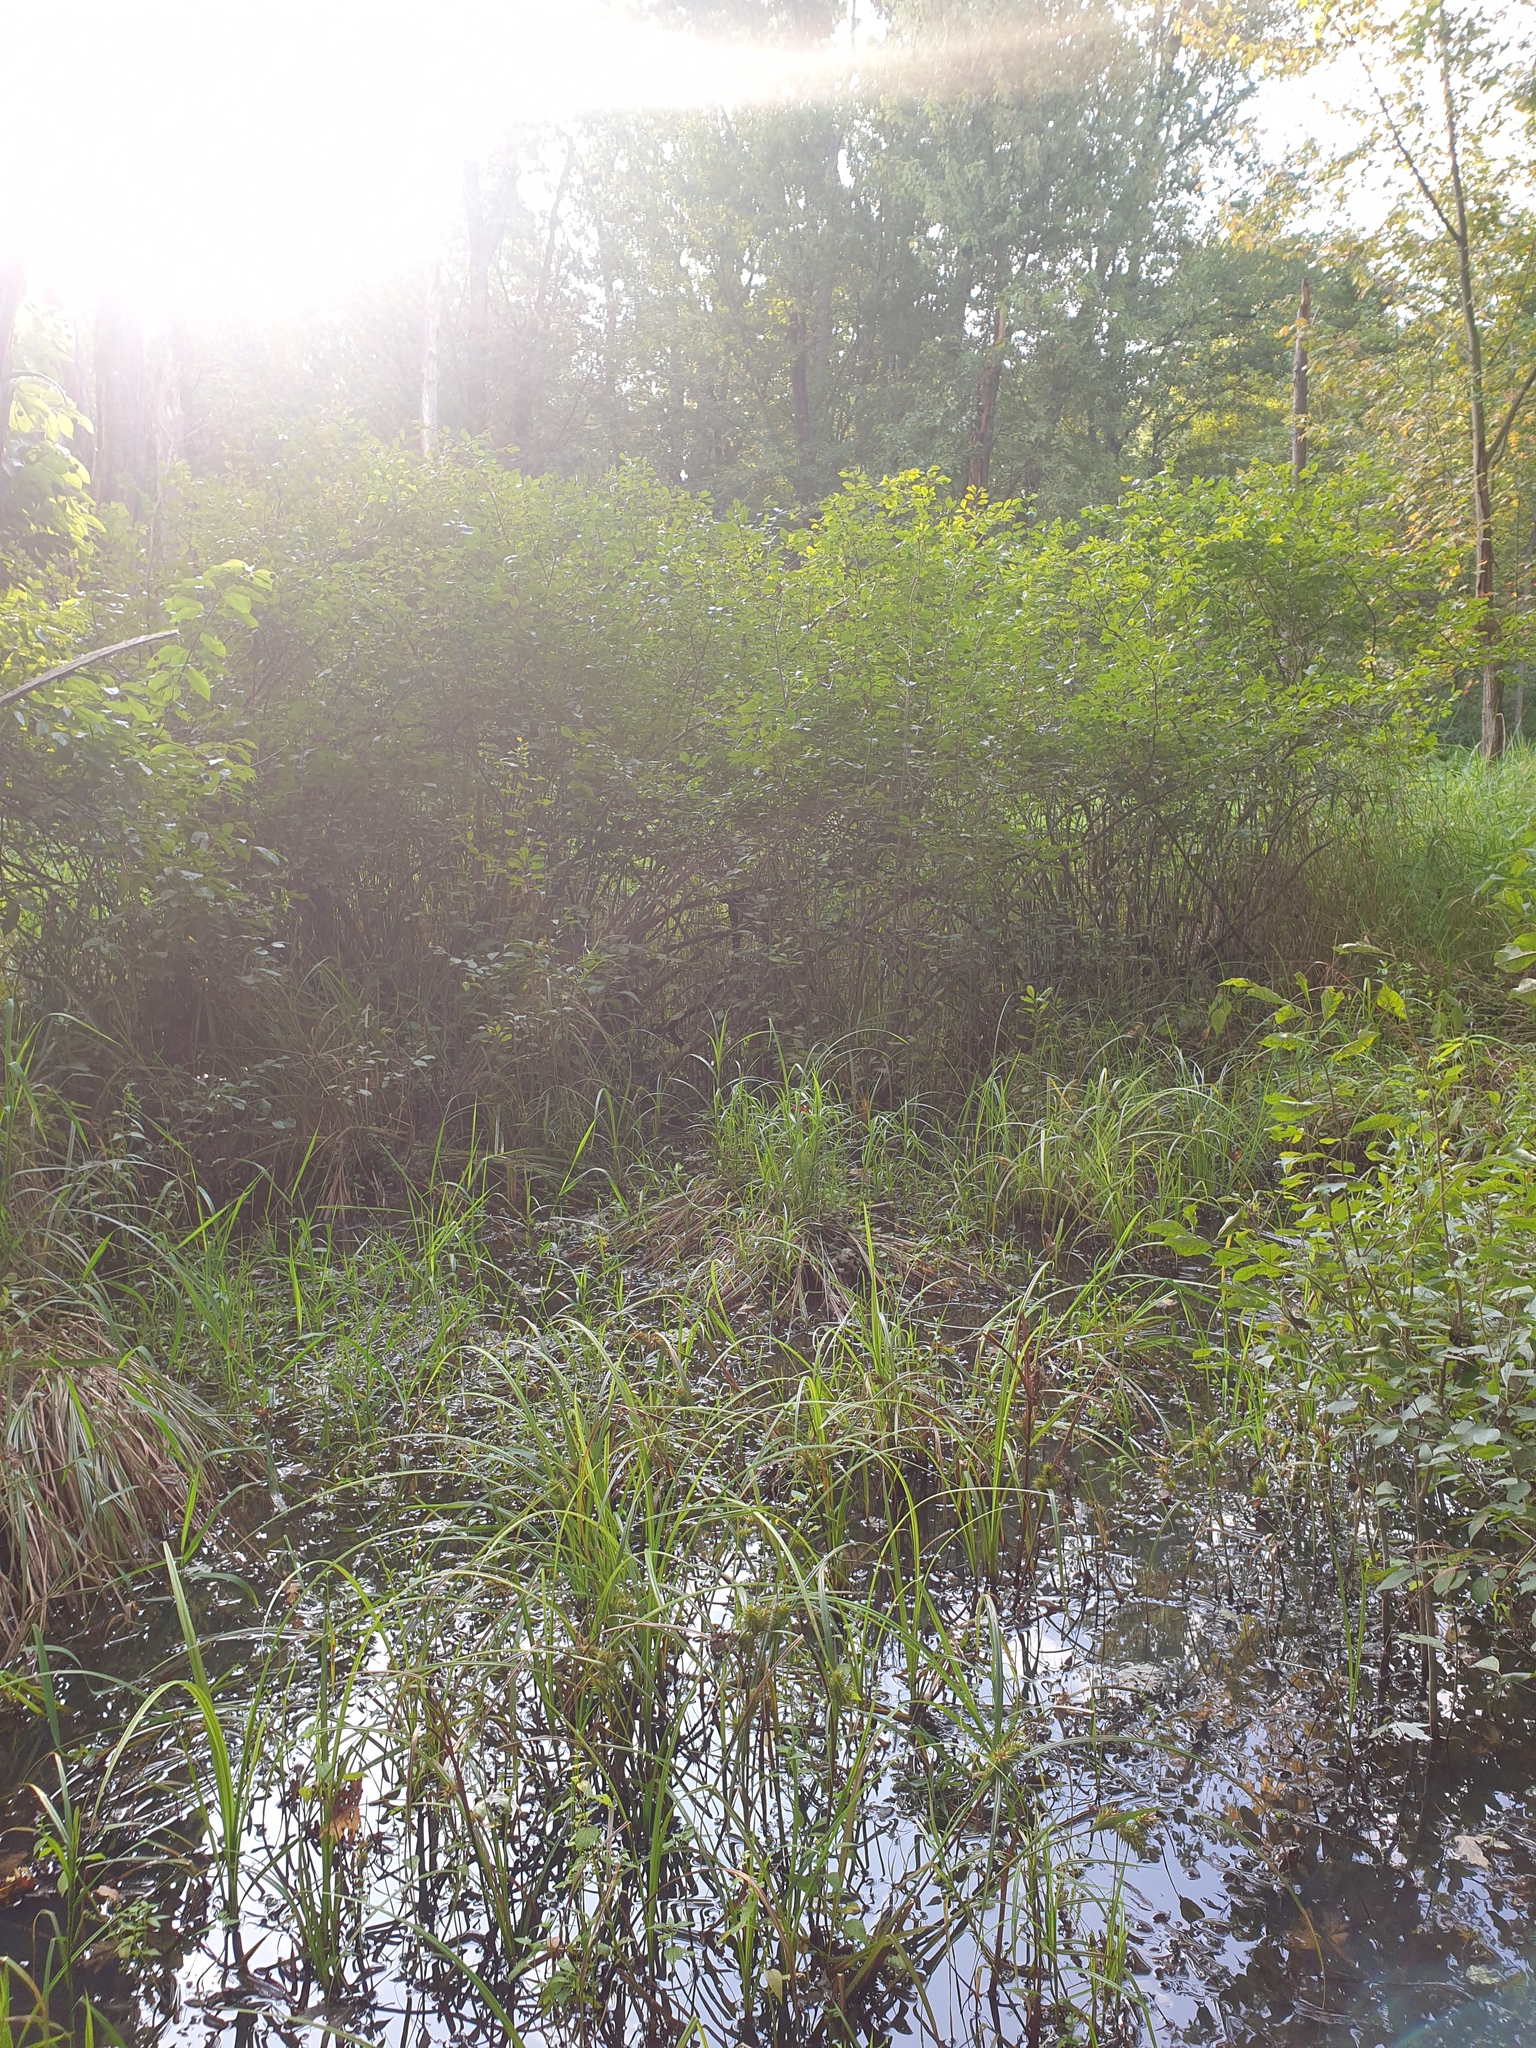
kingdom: Plantae
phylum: Tracheophyta
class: Liliopsida
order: Poales
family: Cyperaceae
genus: Carex
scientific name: Carex lupulina
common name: Hop sedge
